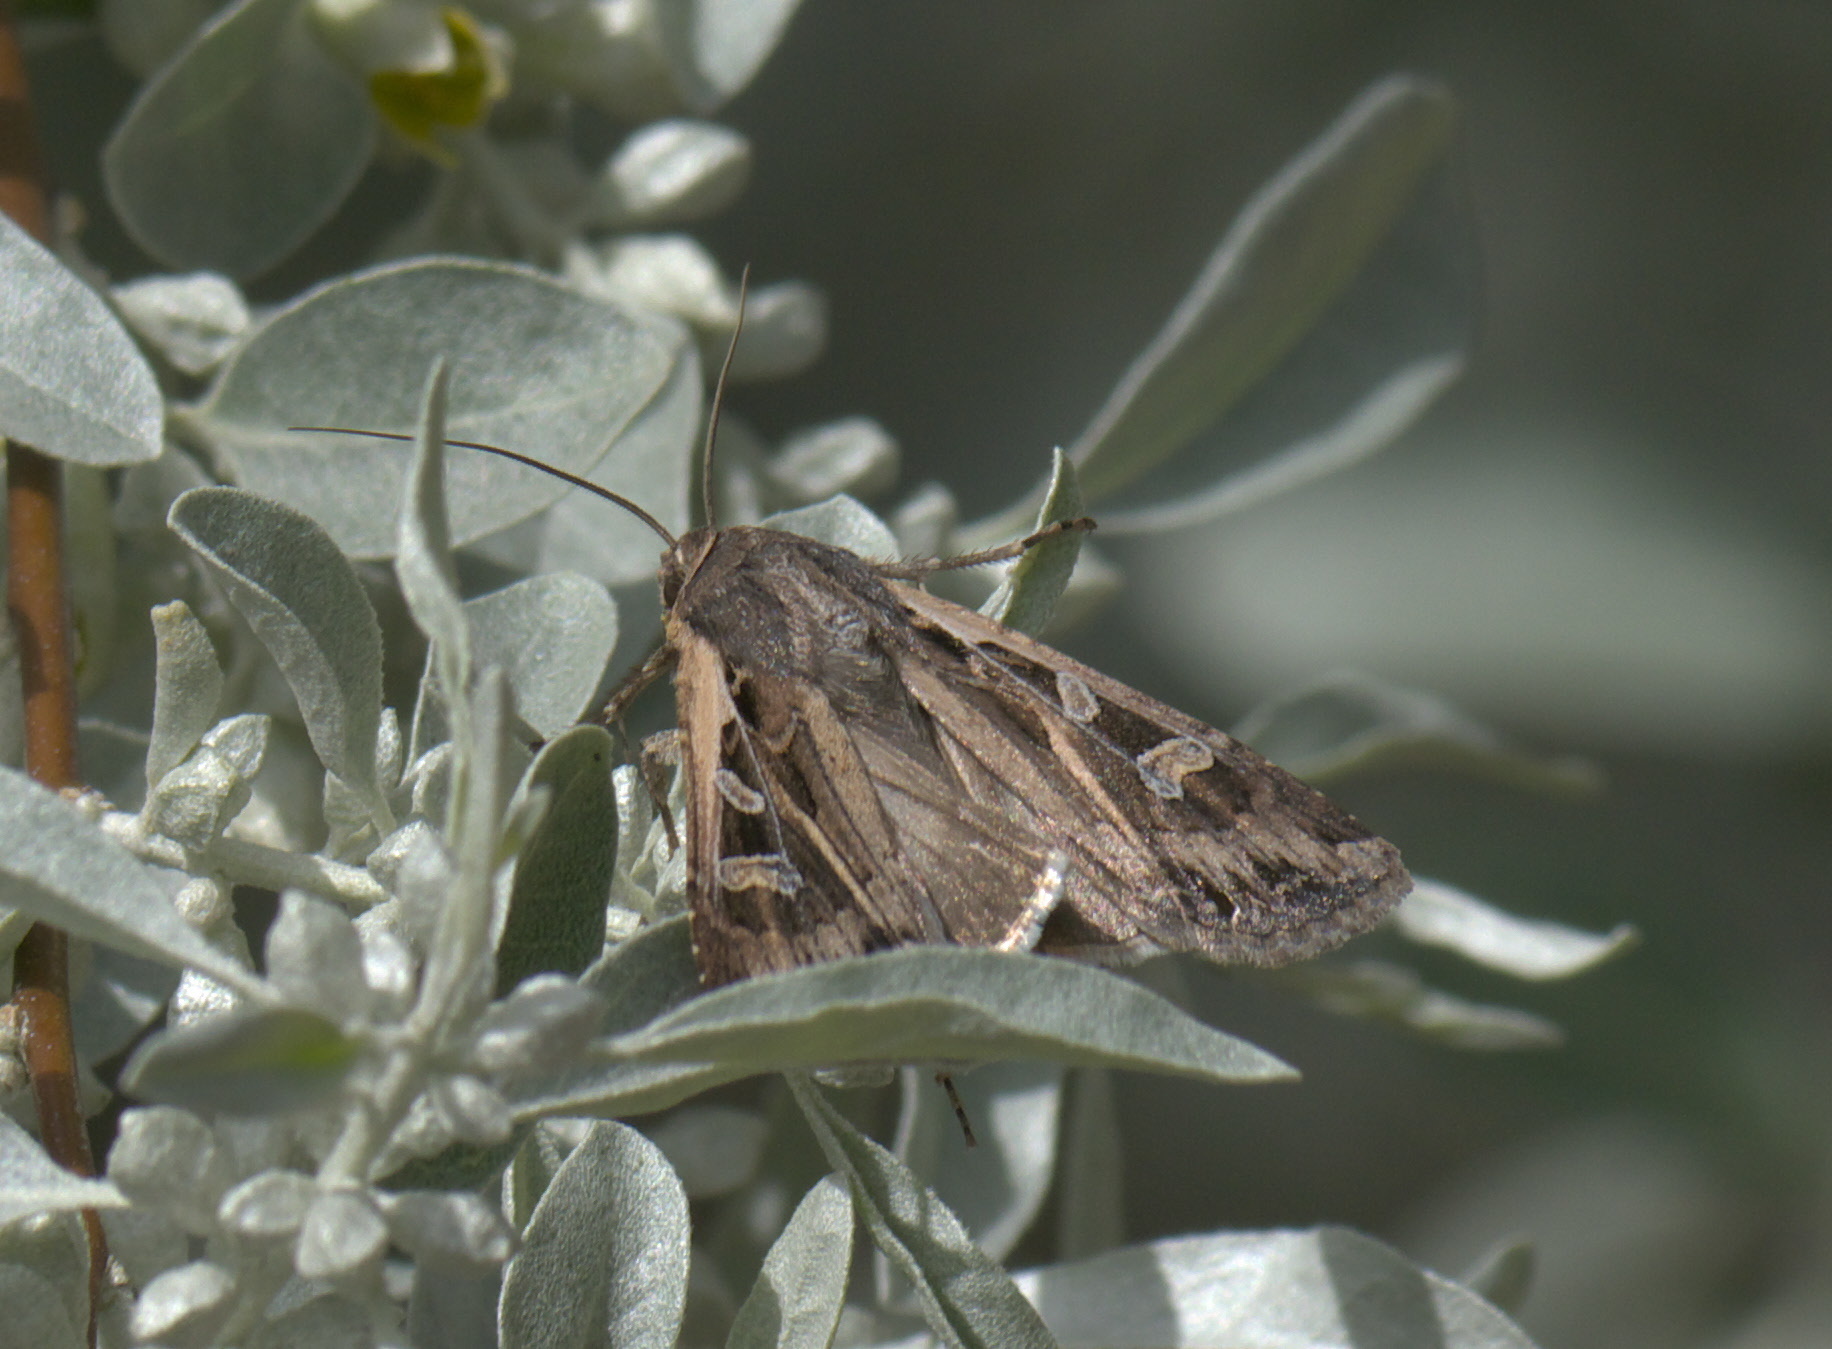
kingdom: Animalia
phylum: Arthropoda
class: Insecta
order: Lepidoptera
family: Noctuidae
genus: Euxoa
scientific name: Euxoa auxiliaris
